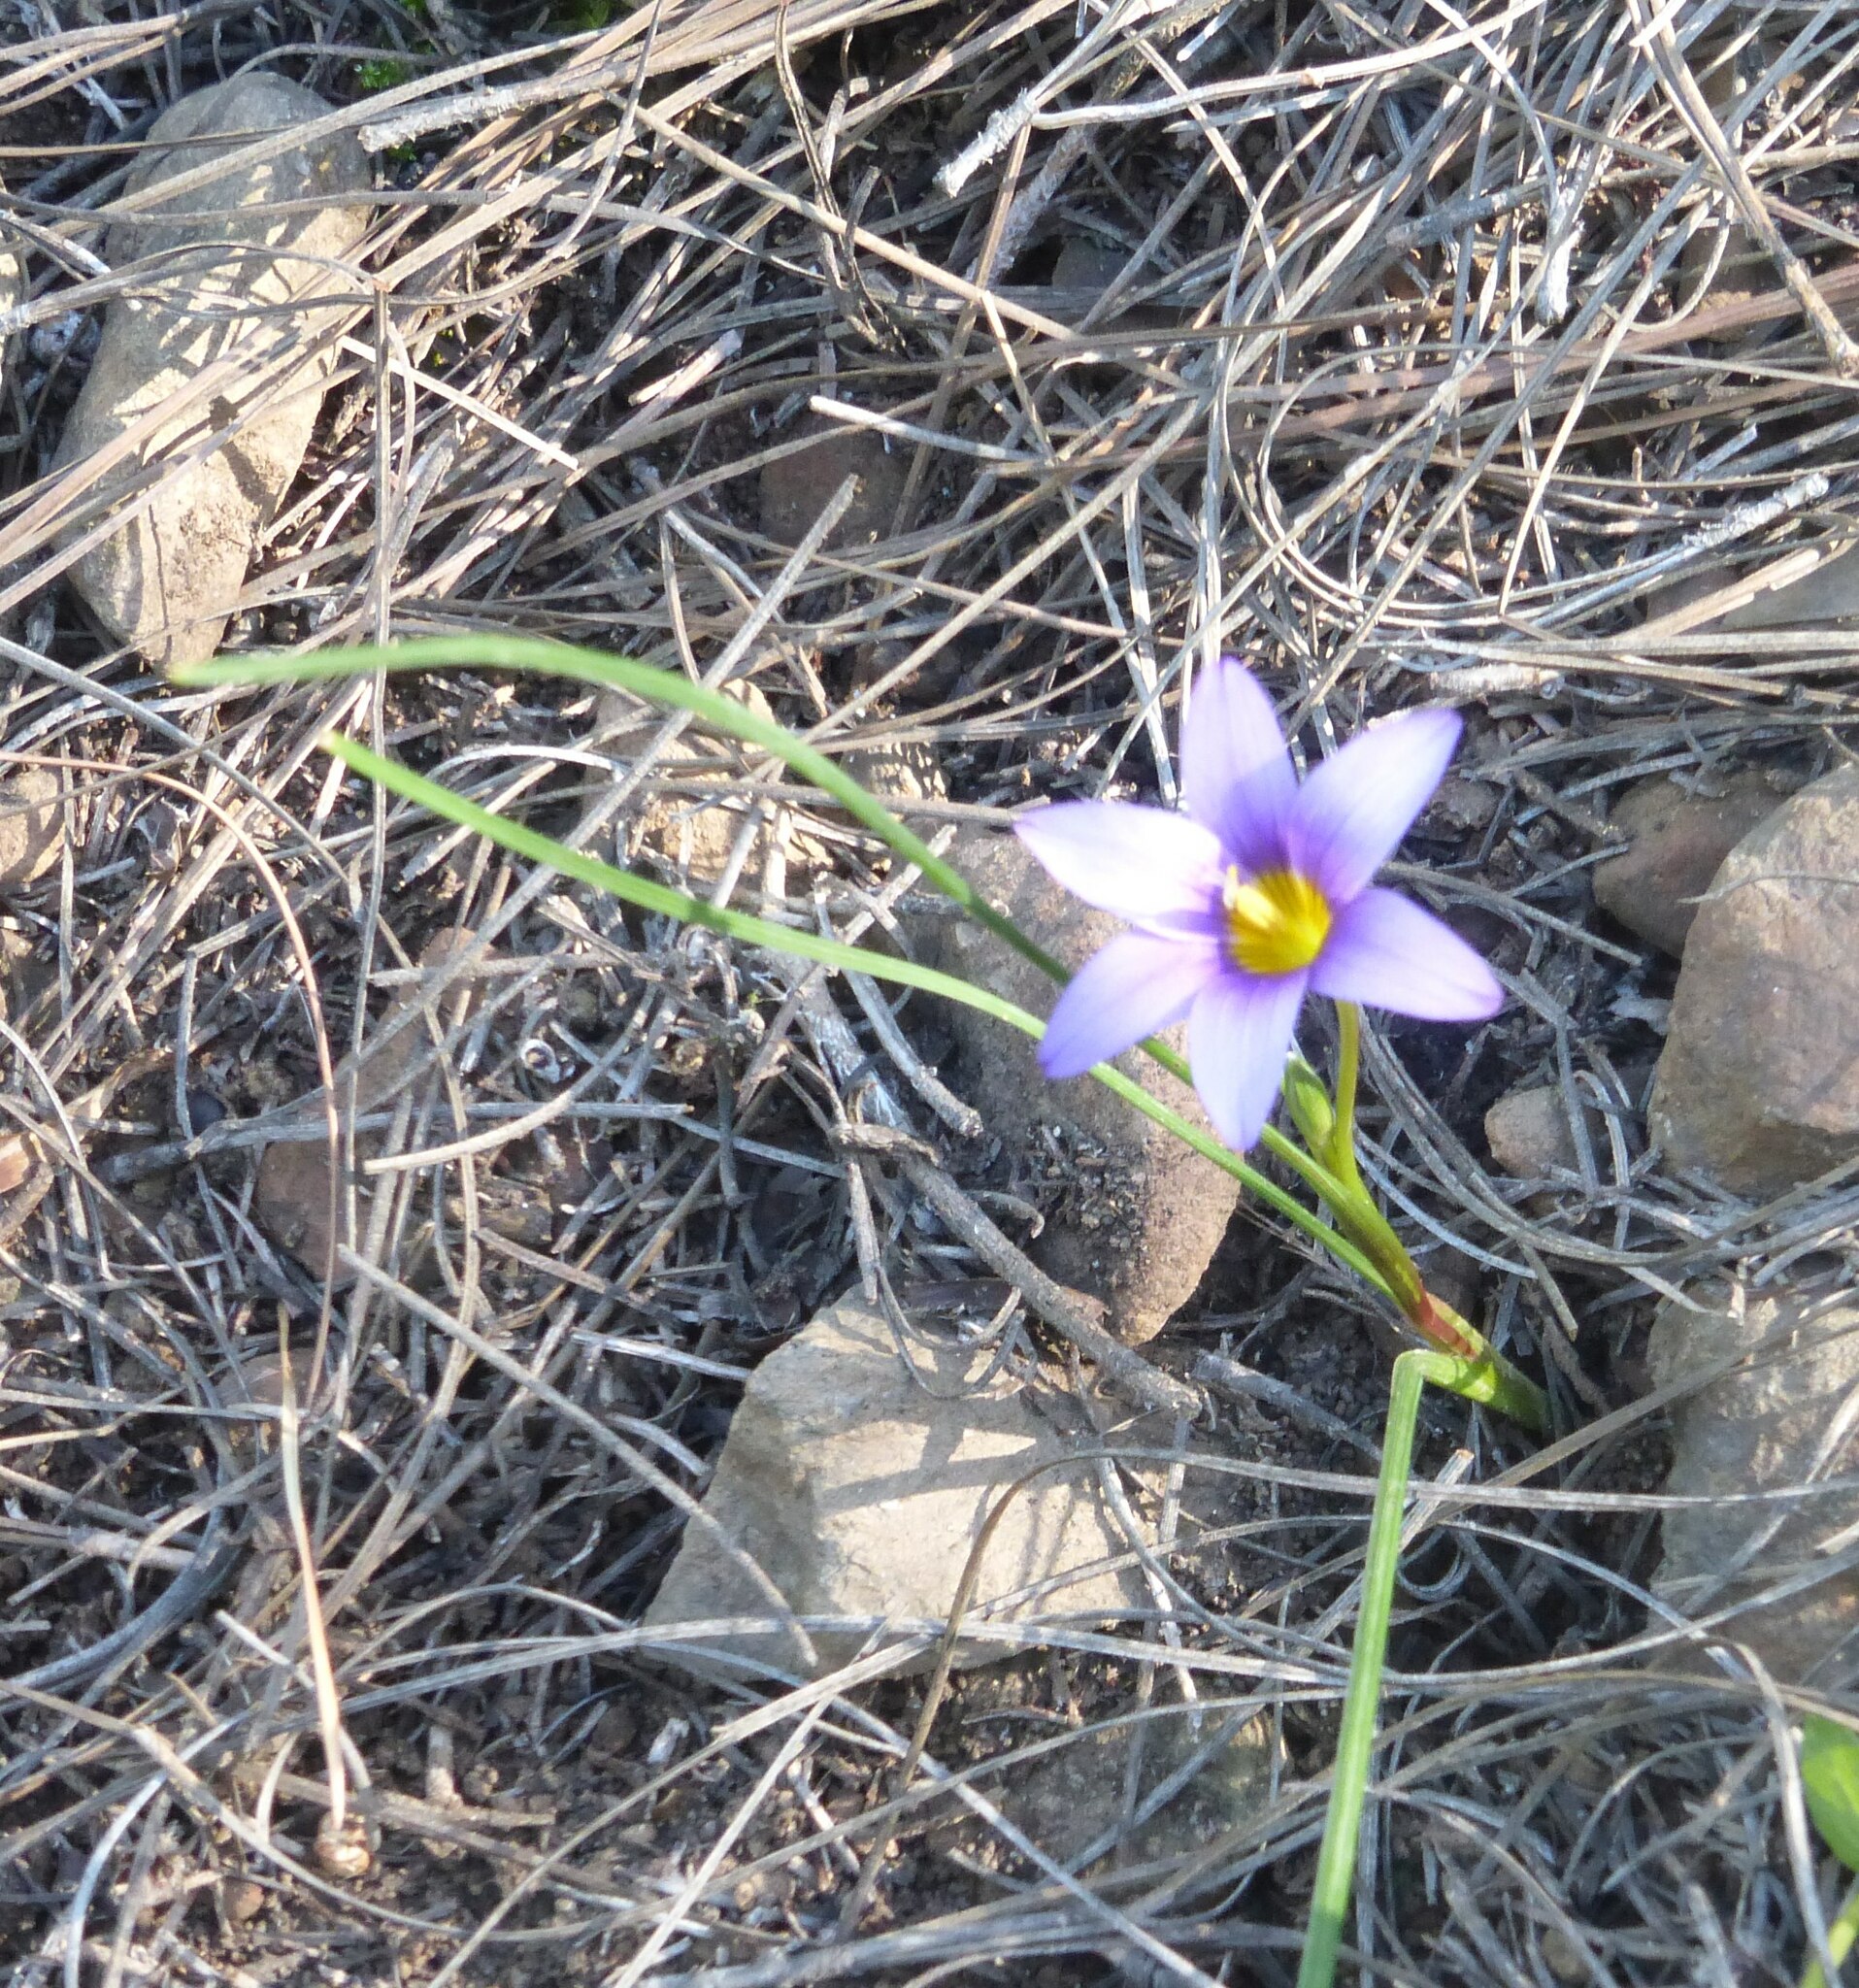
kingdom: Plantae
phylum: Tracheophyta
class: Liliopsida
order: Asparagales
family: Iridaceae
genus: Romulea
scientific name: Romulea columnae
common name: Sand-crocus
